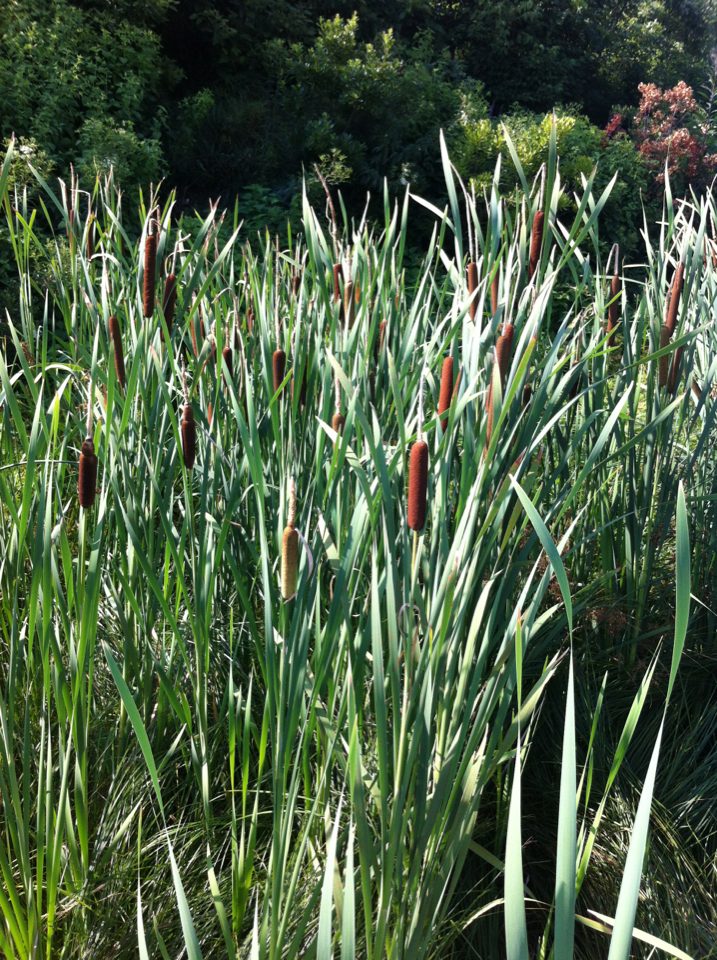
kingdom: Plantae
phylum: Tracheophyta
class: Liliopsida
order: Poales
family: Typhaceae
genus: Typha
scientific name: Typha latifolia
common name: Broadleaf cattail
